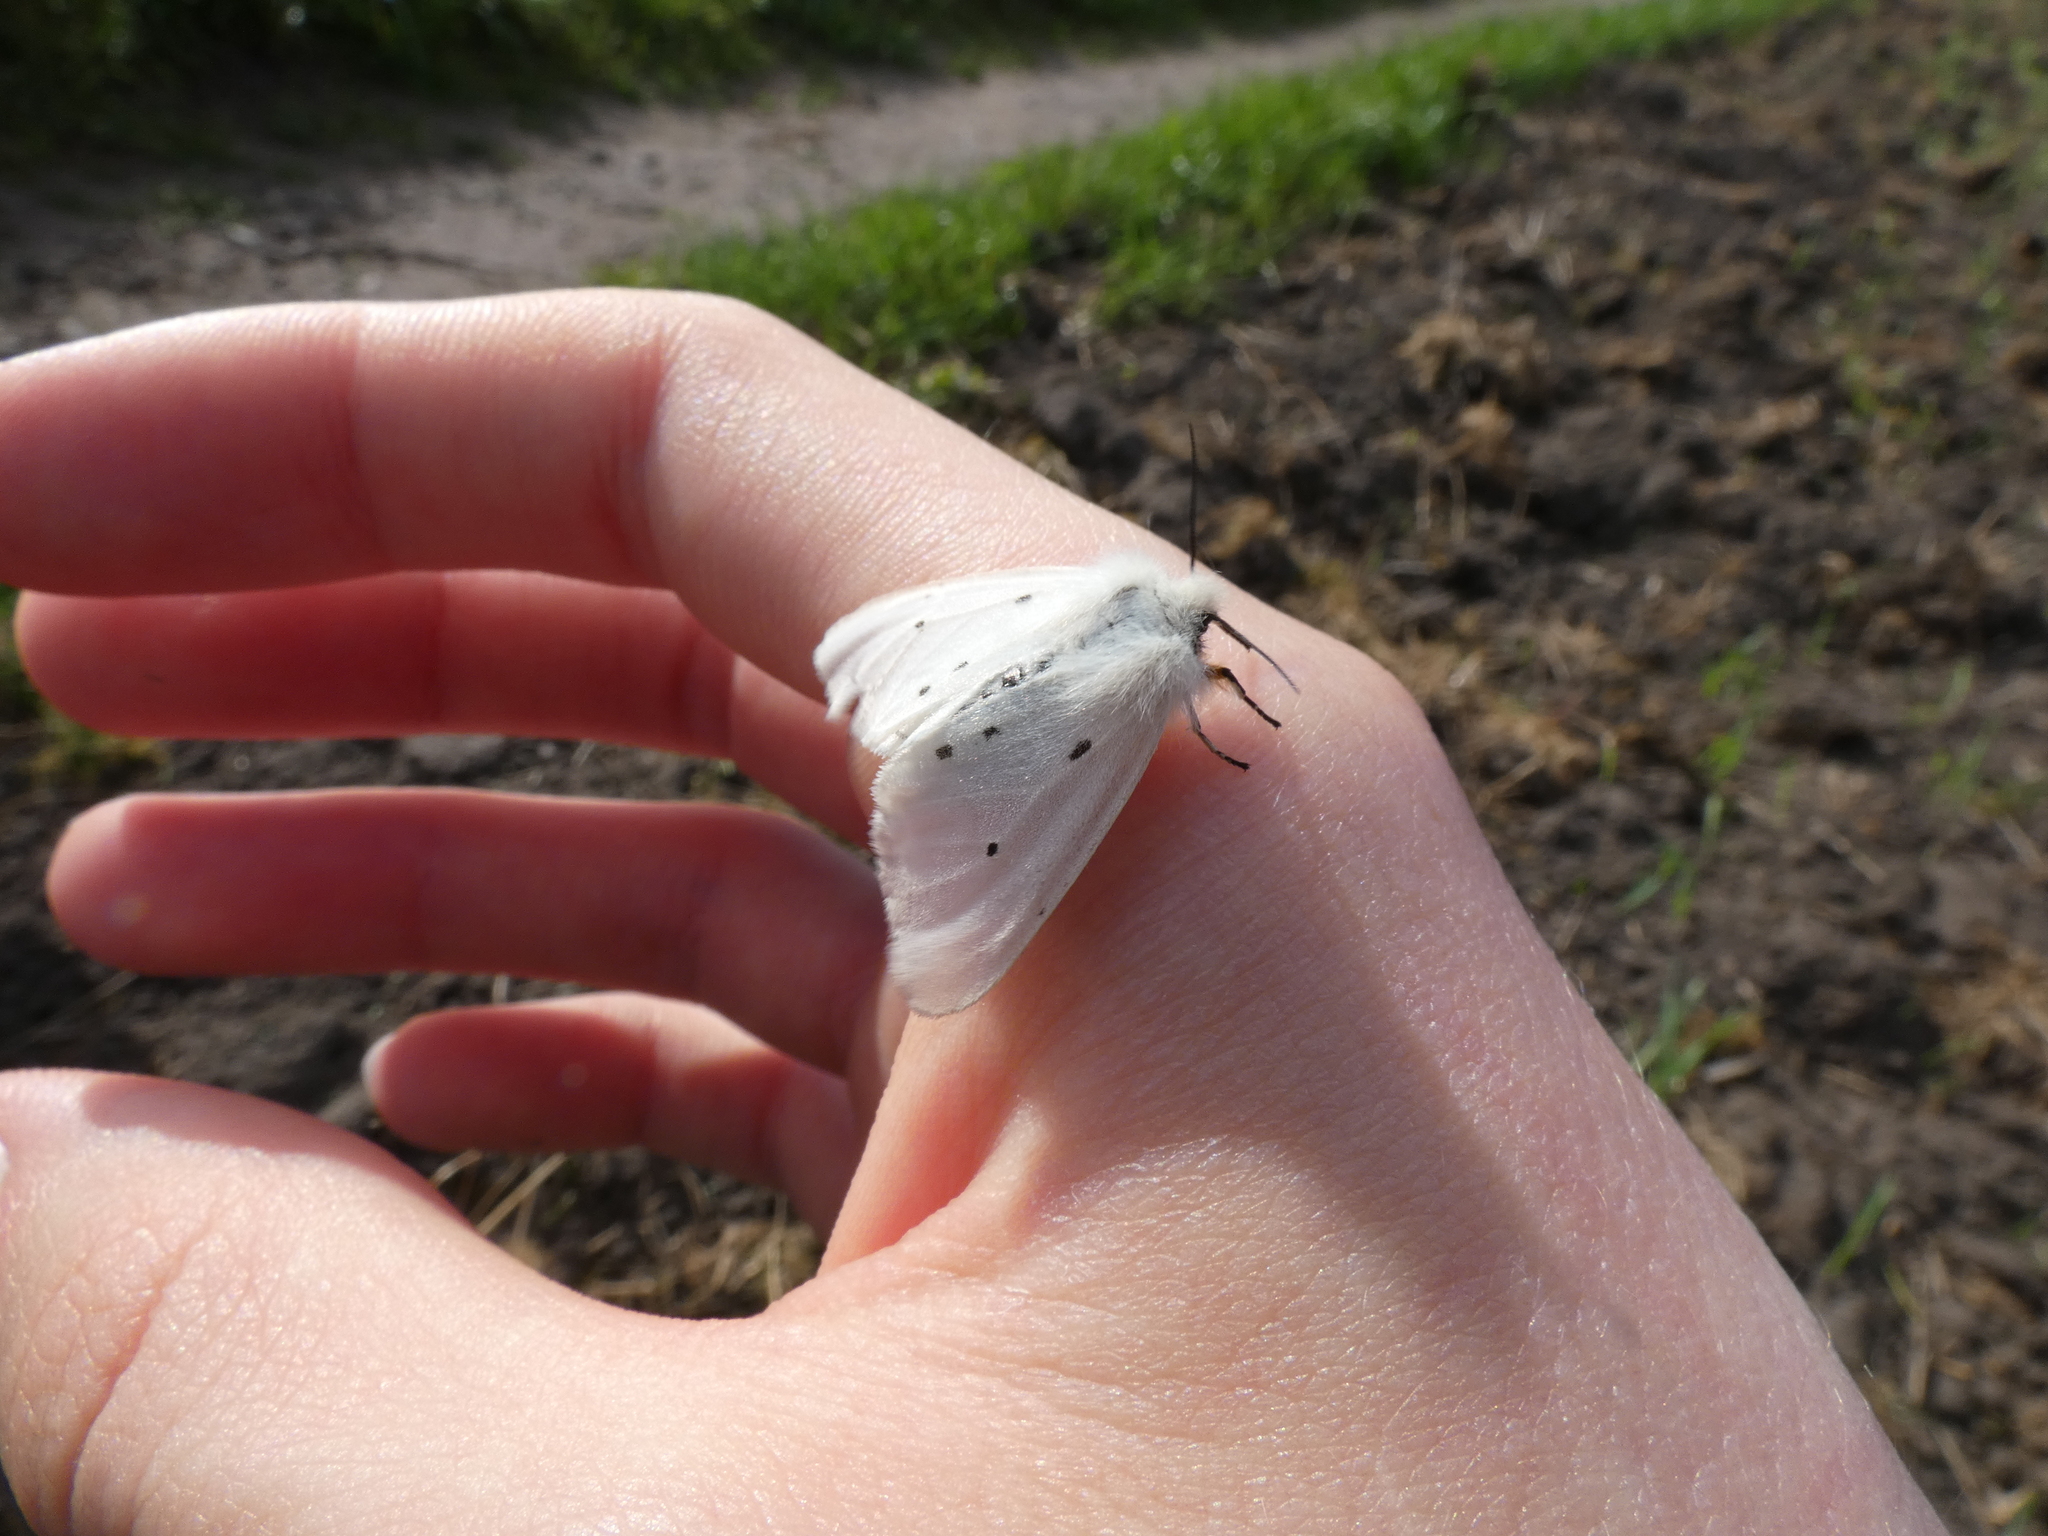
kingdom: Animalia
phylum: Arthropoda
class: Insecta
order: Lepidoptera
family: Erebidae
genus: Diaphora
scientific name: Diaphora mendica
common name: Muslin moth
